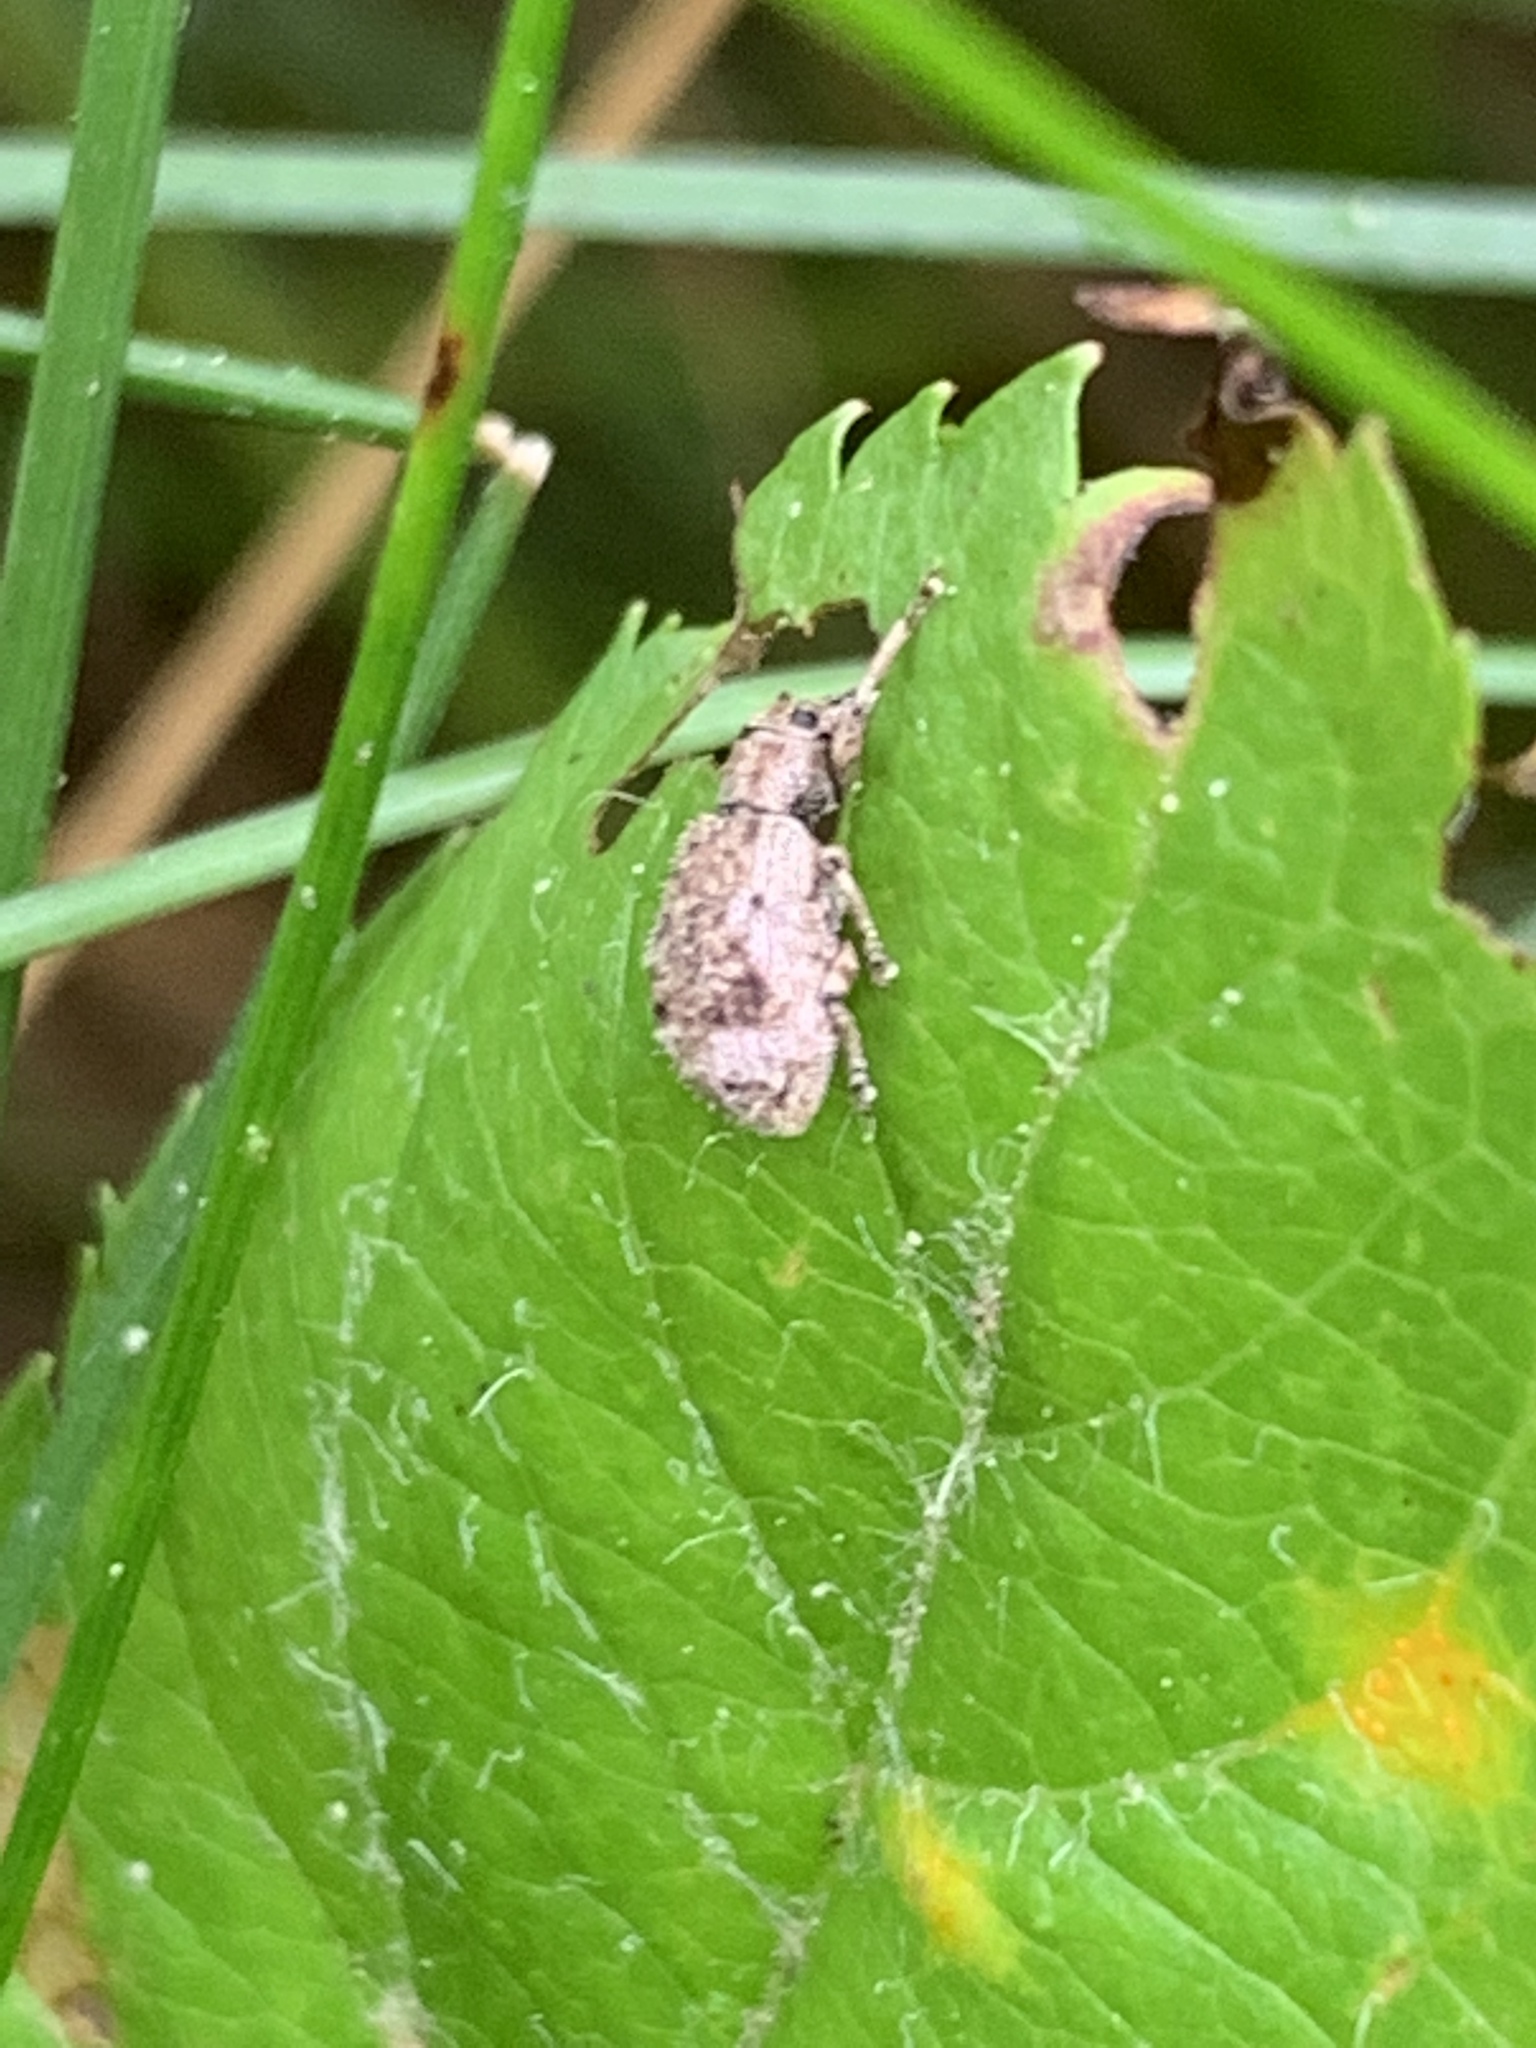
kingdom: Animalia
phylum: Arthropoda
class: Insecta
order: Coleoptera
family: Curculionidae
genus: Pseudoedophrys
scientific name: Pseudoedophrys hilleri
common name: Weevil
